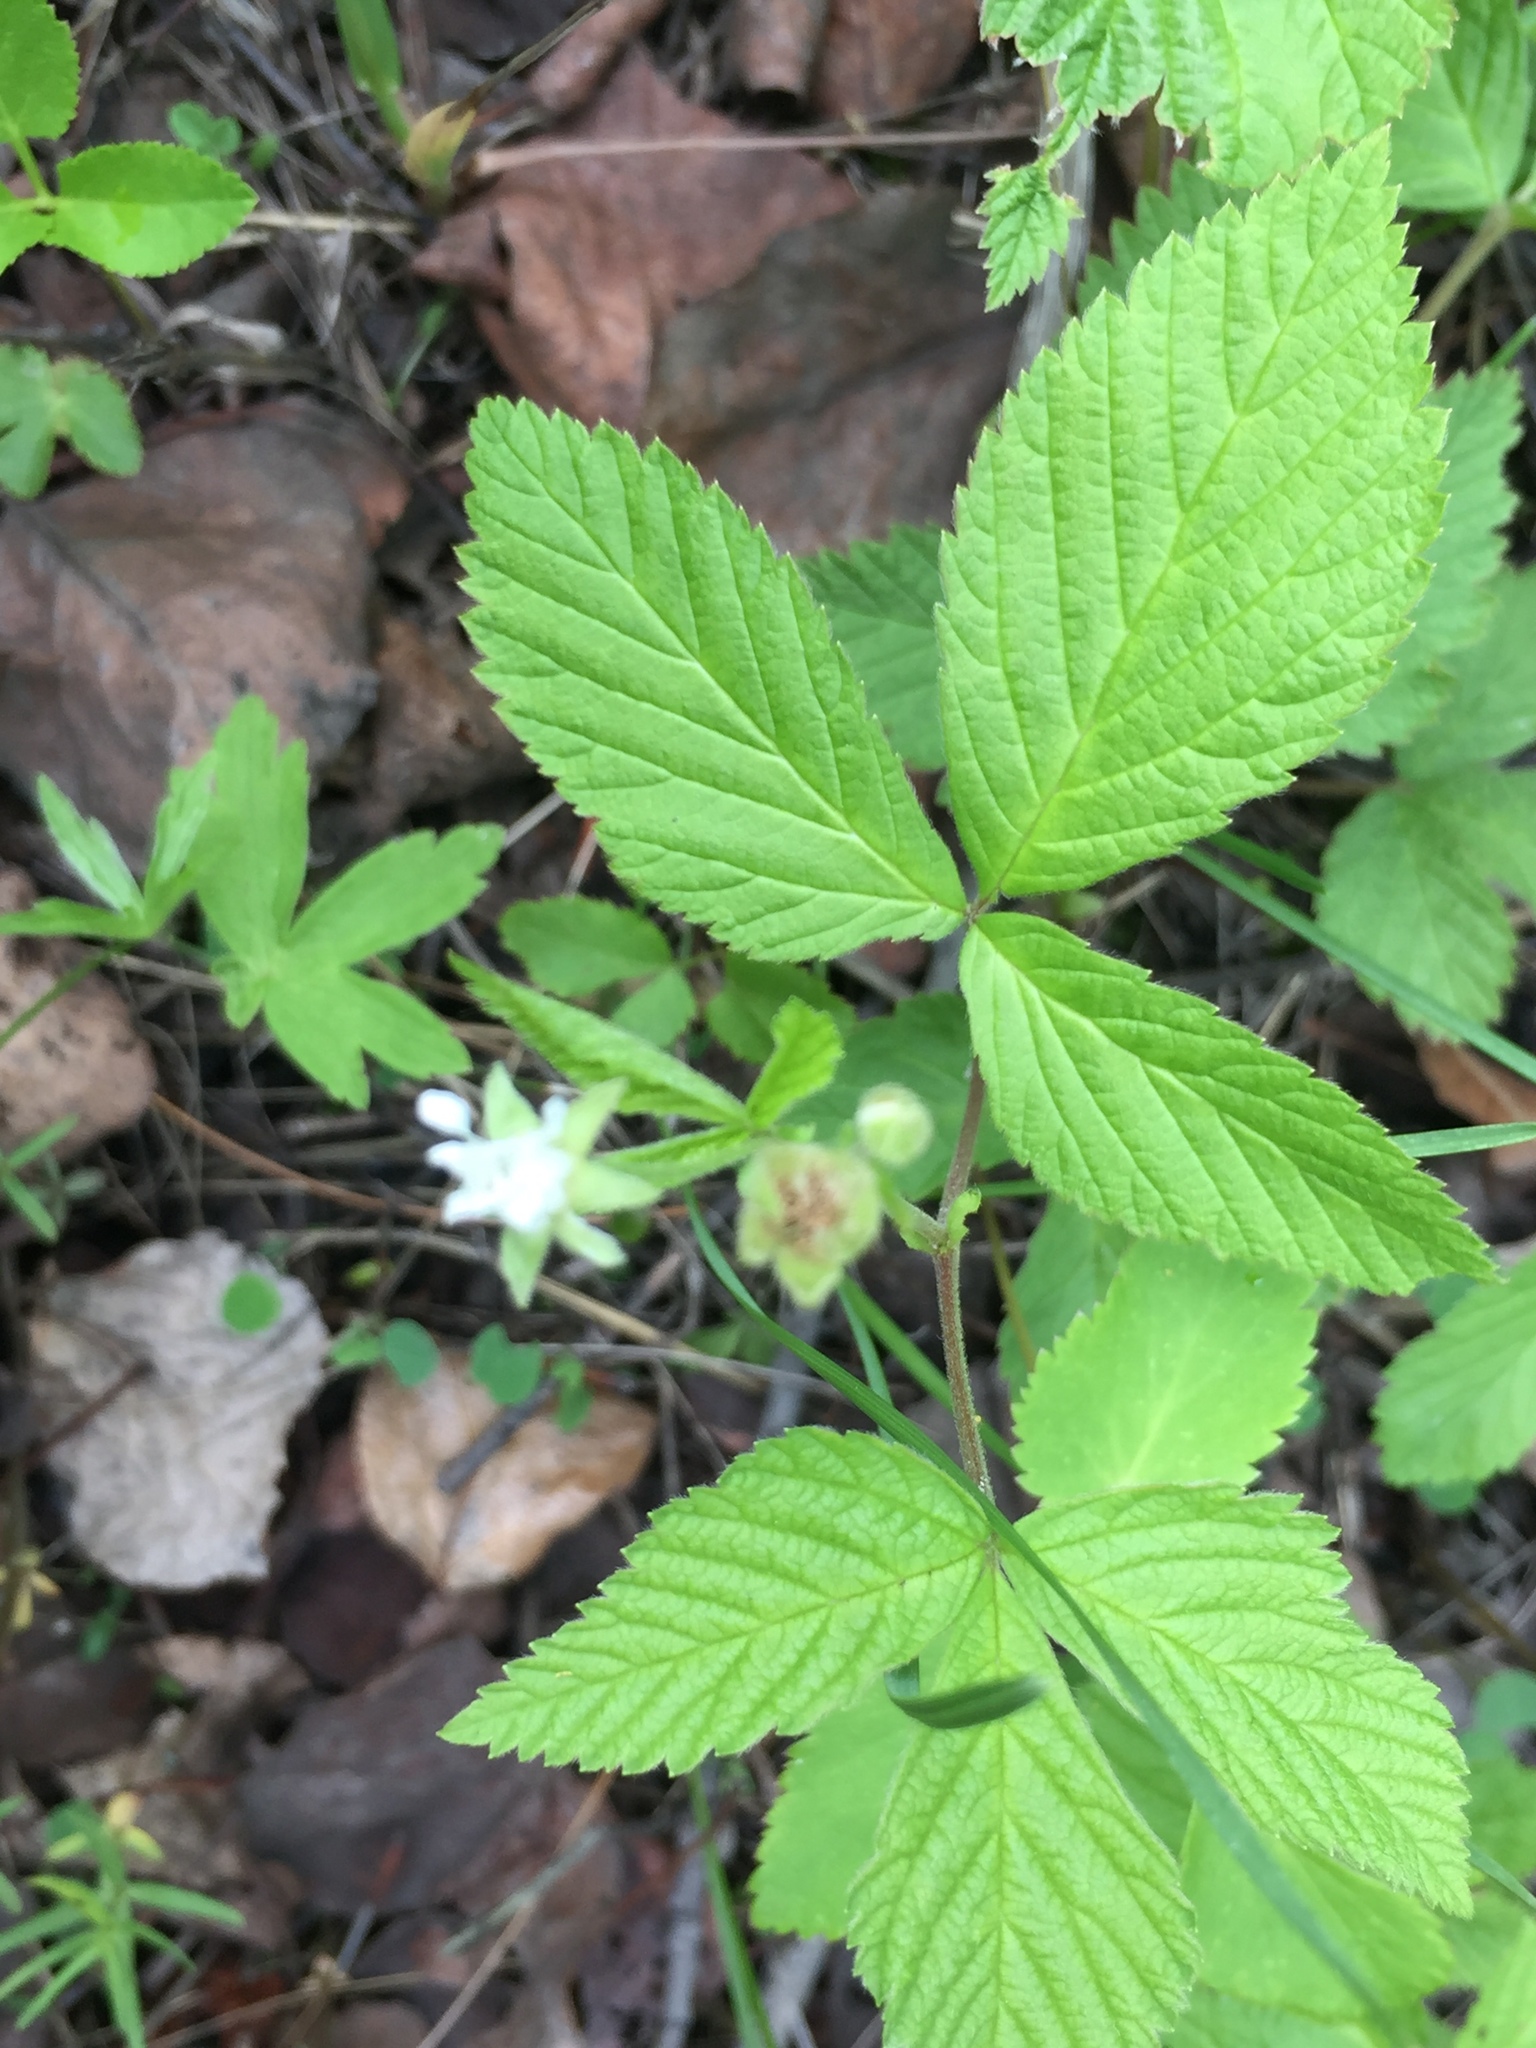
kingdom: Plantae
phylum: Tracheophyta
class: Magnoliopsida
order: Rosales
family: Rosaceae
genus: Rubus
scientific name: Rubus pubescens
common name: Dwarf raspberry
